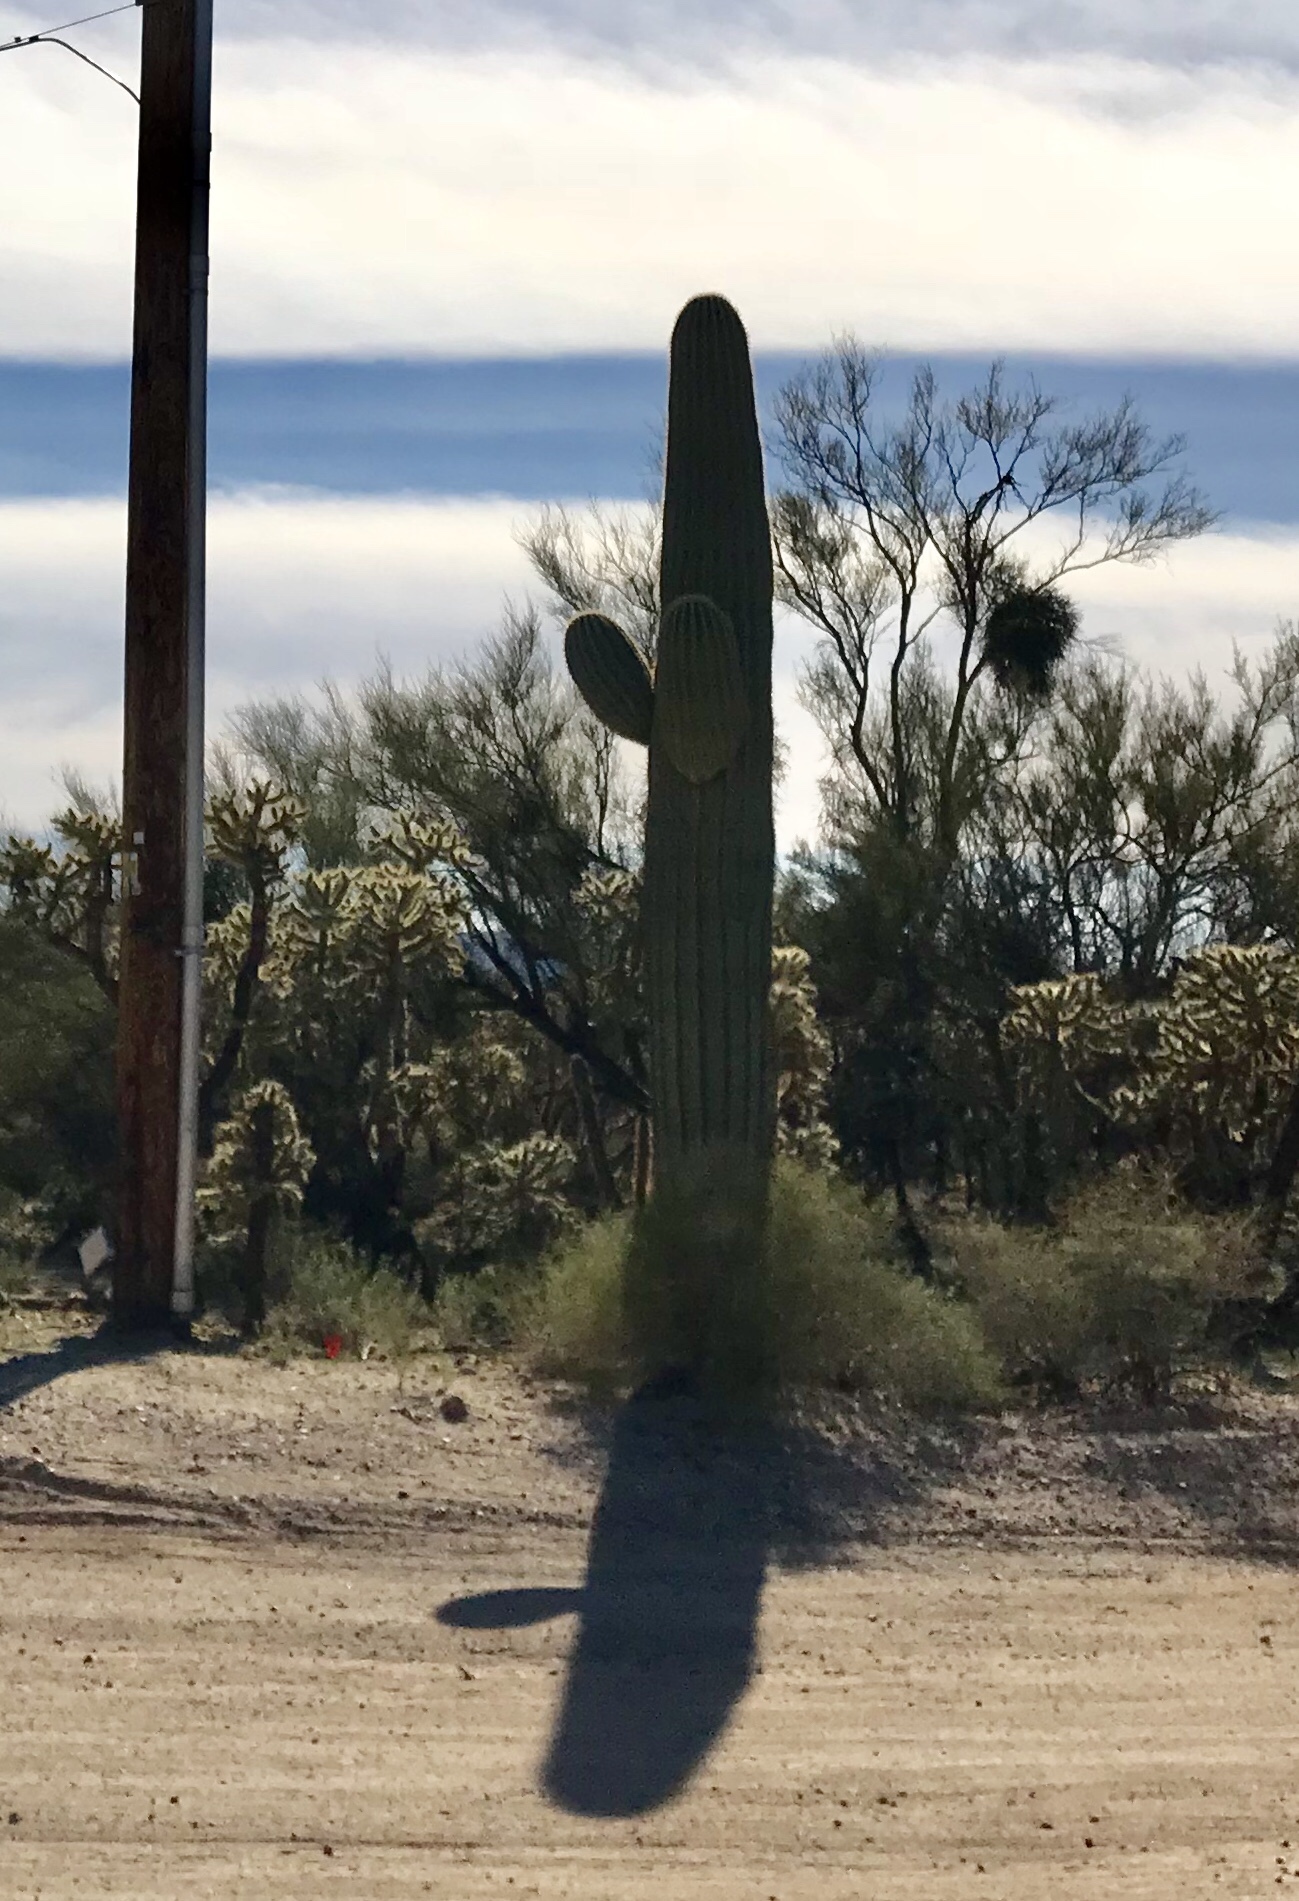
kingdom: Plantae
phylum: Tracheophyta
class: Magnoliopsida
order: Caryophyllales
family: Cactaceae
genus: Carnegiea
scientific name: Carnegiea gigantea
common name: Saguaro
